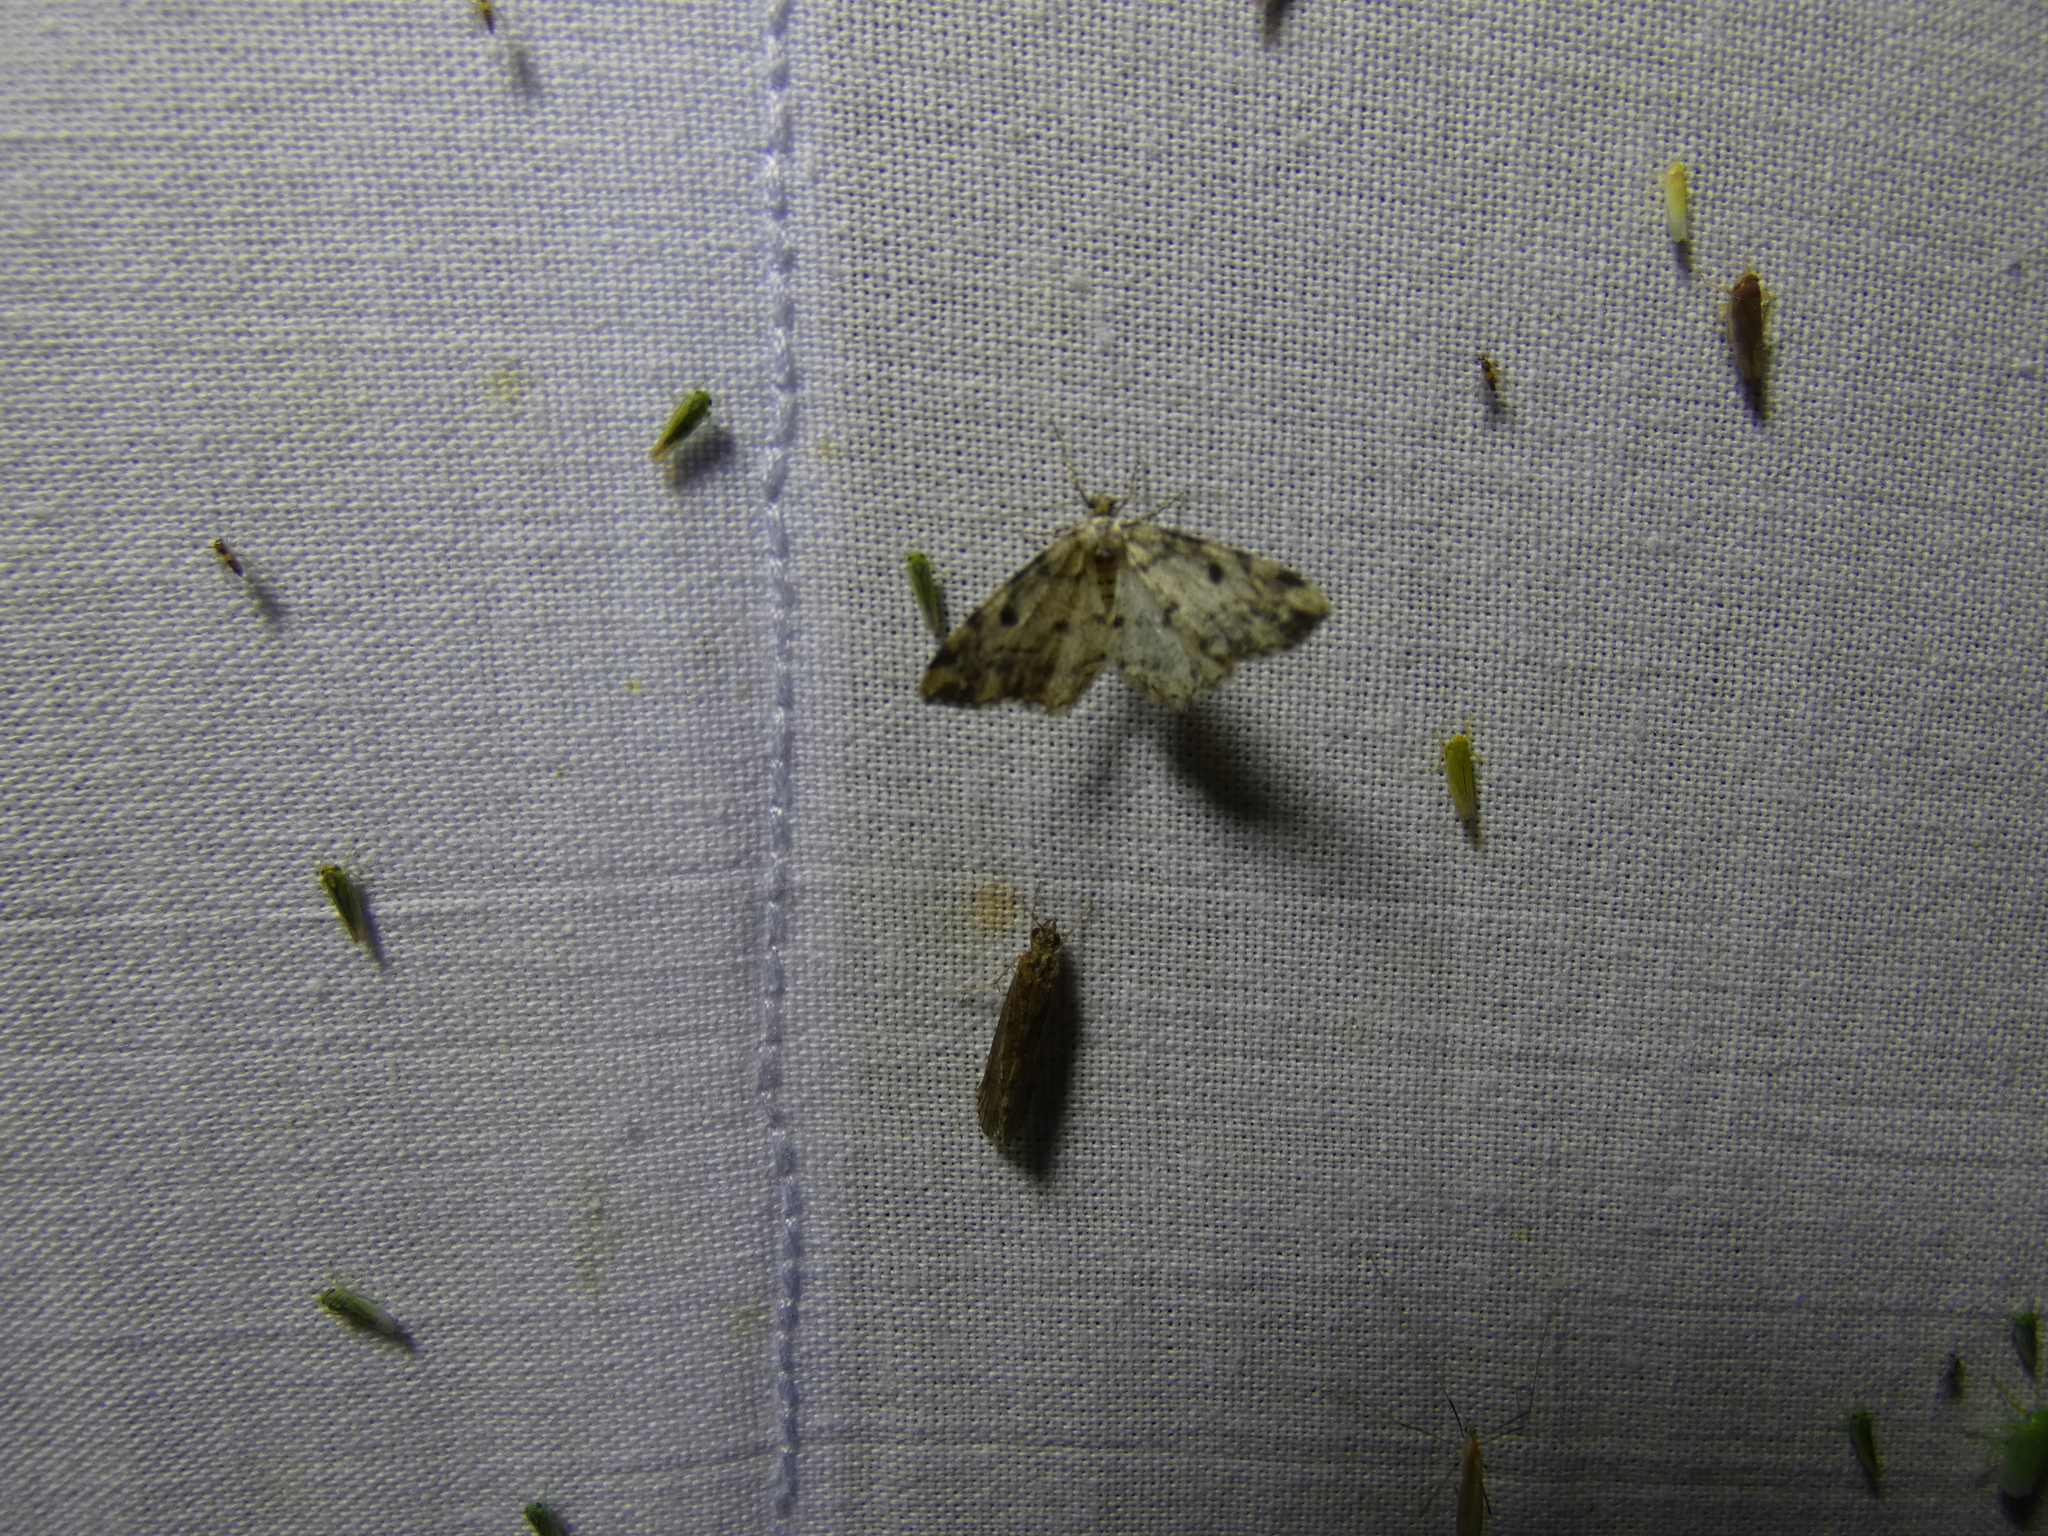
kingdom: Animalia
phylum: Arthropoda
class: Insecta
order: Lepidoptera
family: Geometridae
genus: Alcis
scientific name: Alcis jubata
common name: Dotted carpet
